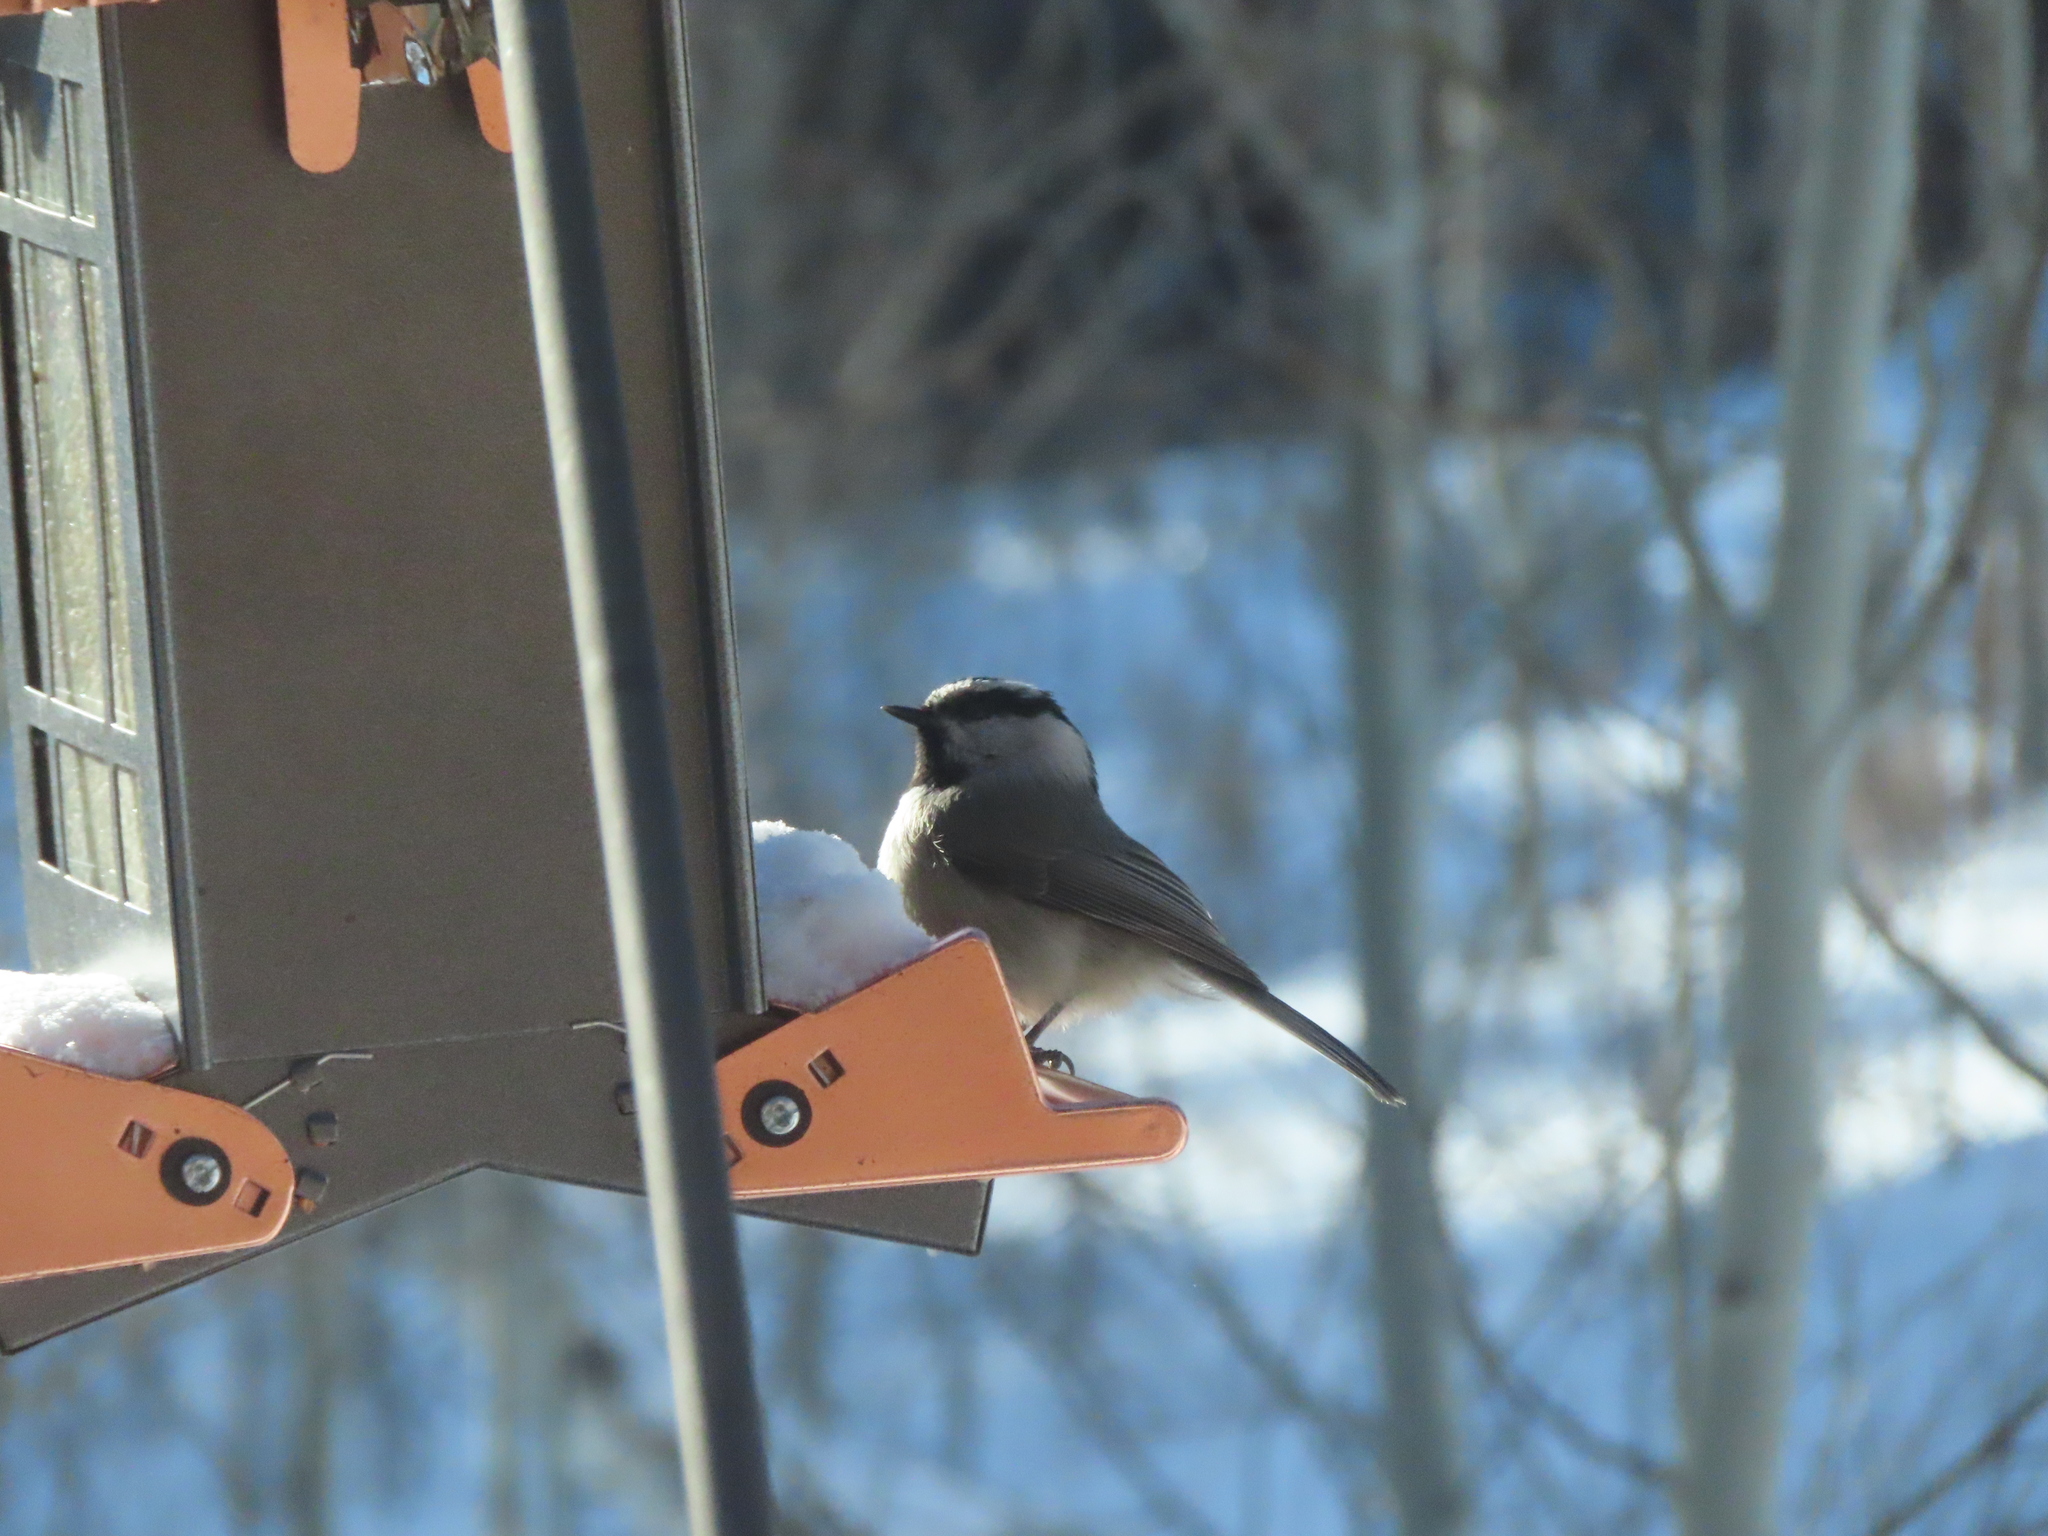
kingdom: Animalia
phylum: Chordata
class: Aves
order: Passeriformes
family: Paridae
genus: Poecile
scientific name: Poecile gambeli
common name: Mountain chickadee
